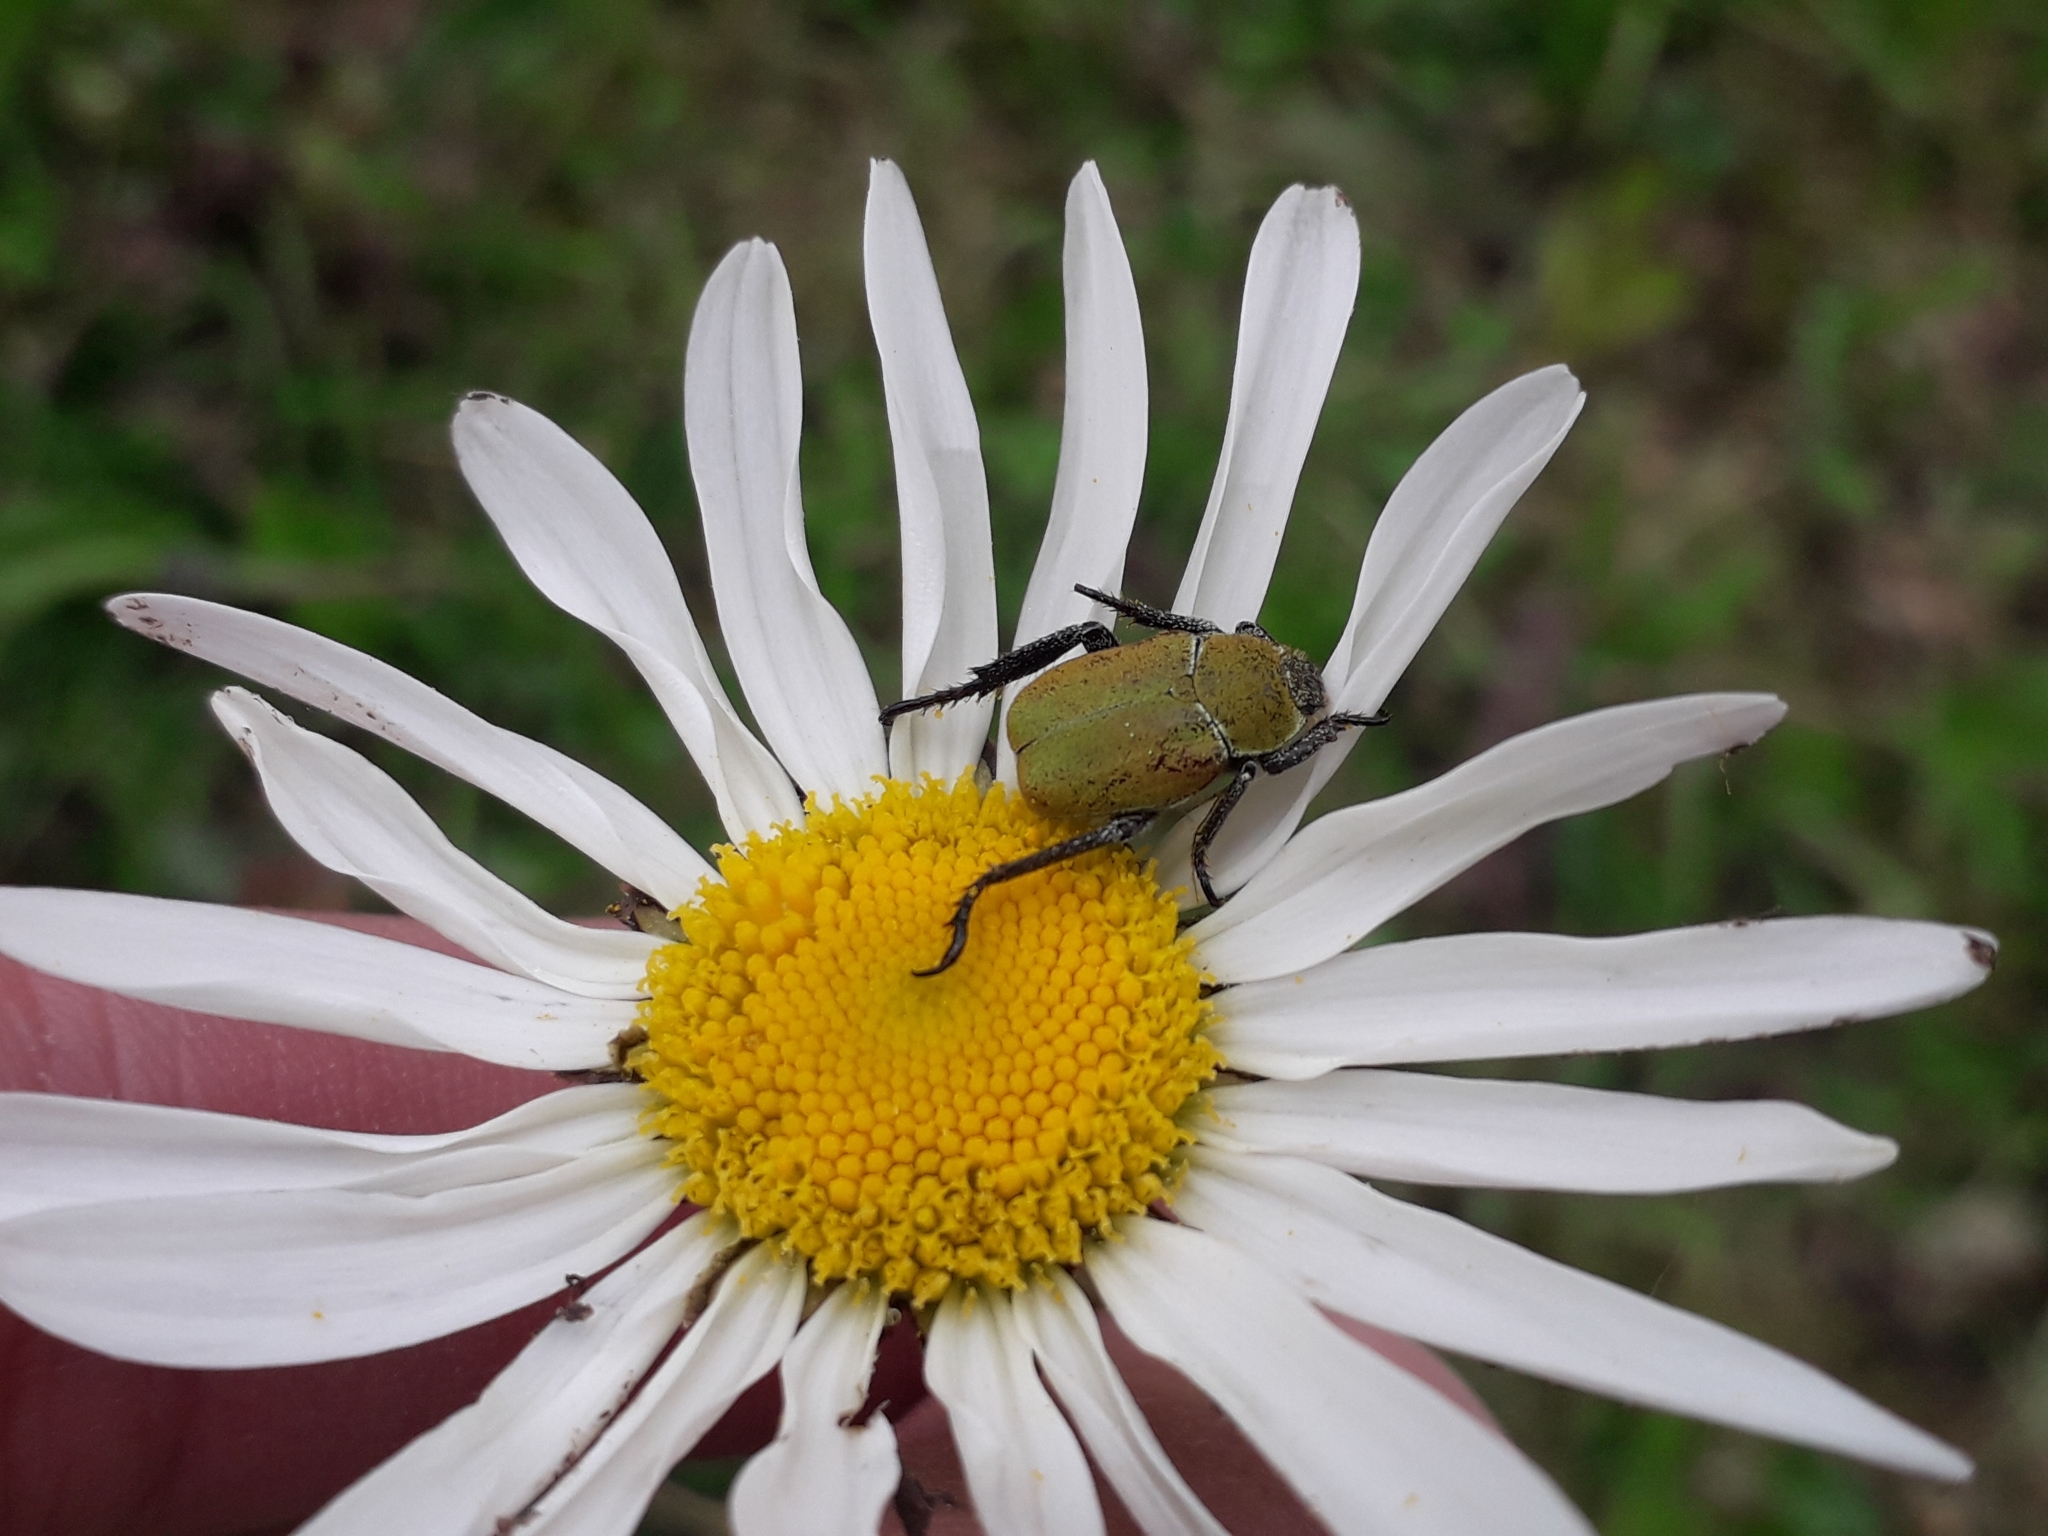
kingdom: Animalia
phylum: Arthropoda
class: Insecta
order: Coleoptera
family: Scarabaeidae
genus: Hoplia
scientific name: Hoplia argentea
